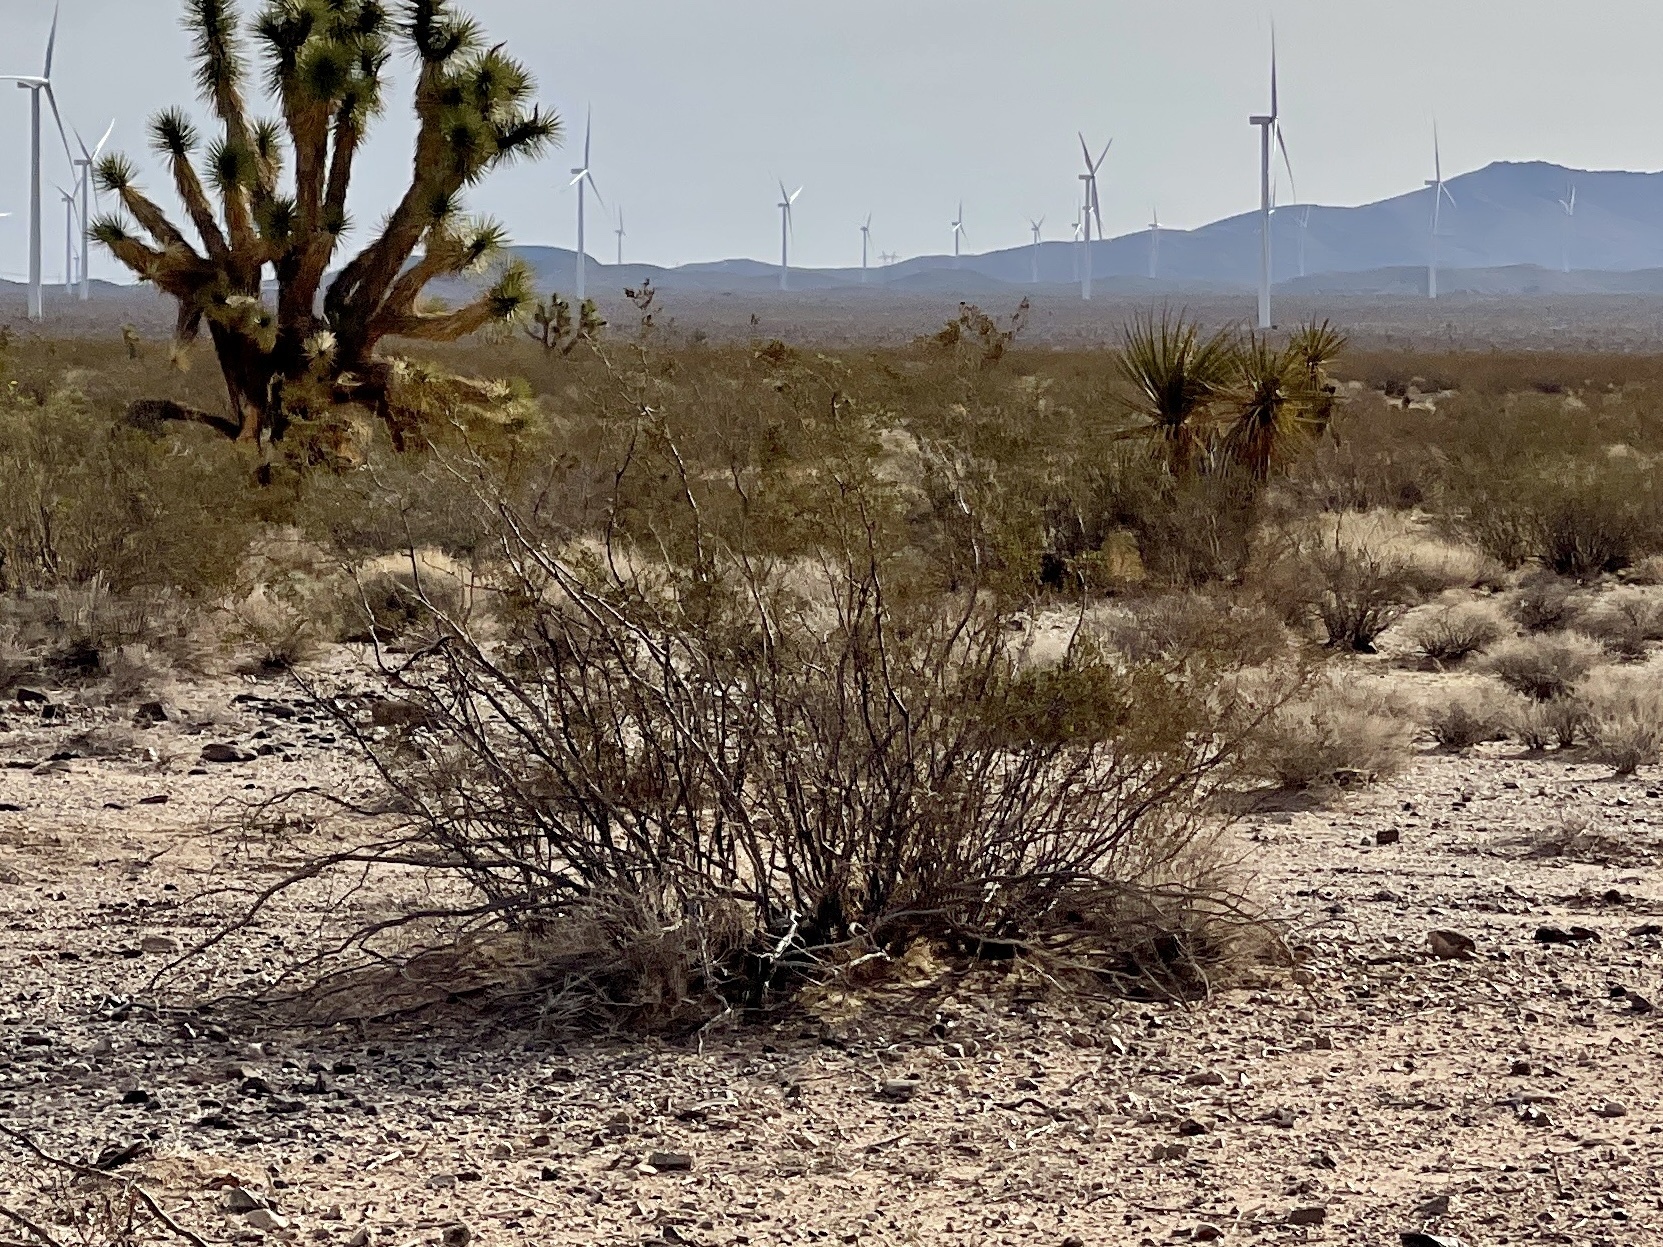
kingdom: Plantae
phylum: Tracheophyta
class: Magnoliopsida
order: Zygophyllales
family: Zygophyllaceae
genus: Larrea
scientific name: Larrea tridentata
